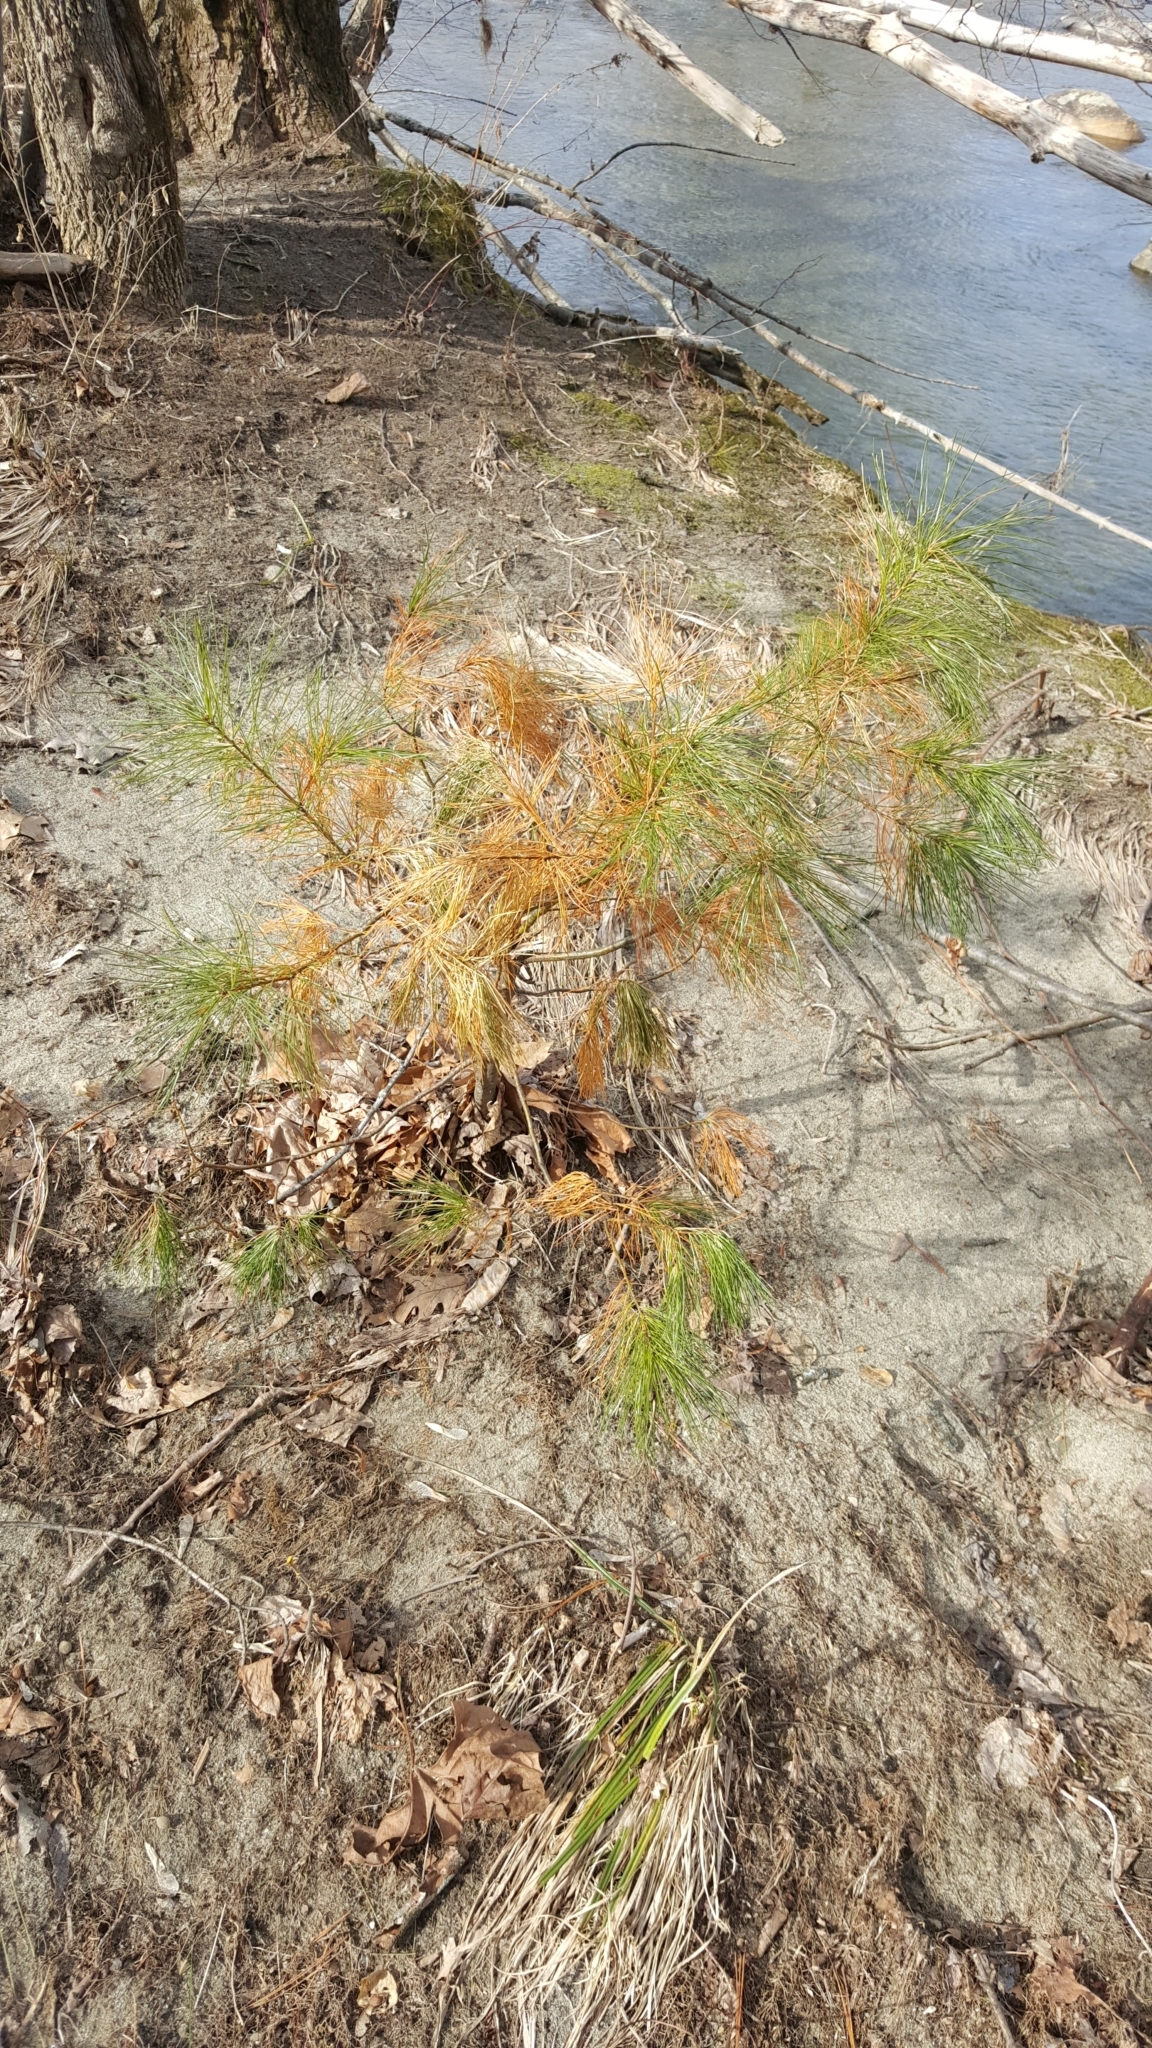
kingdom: Plantae
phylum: Tracheophyta
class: Pinopsida
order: Pinales
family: Pinaceae
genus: Pinus
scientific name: Pinus strobus
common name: Weymouth pine
